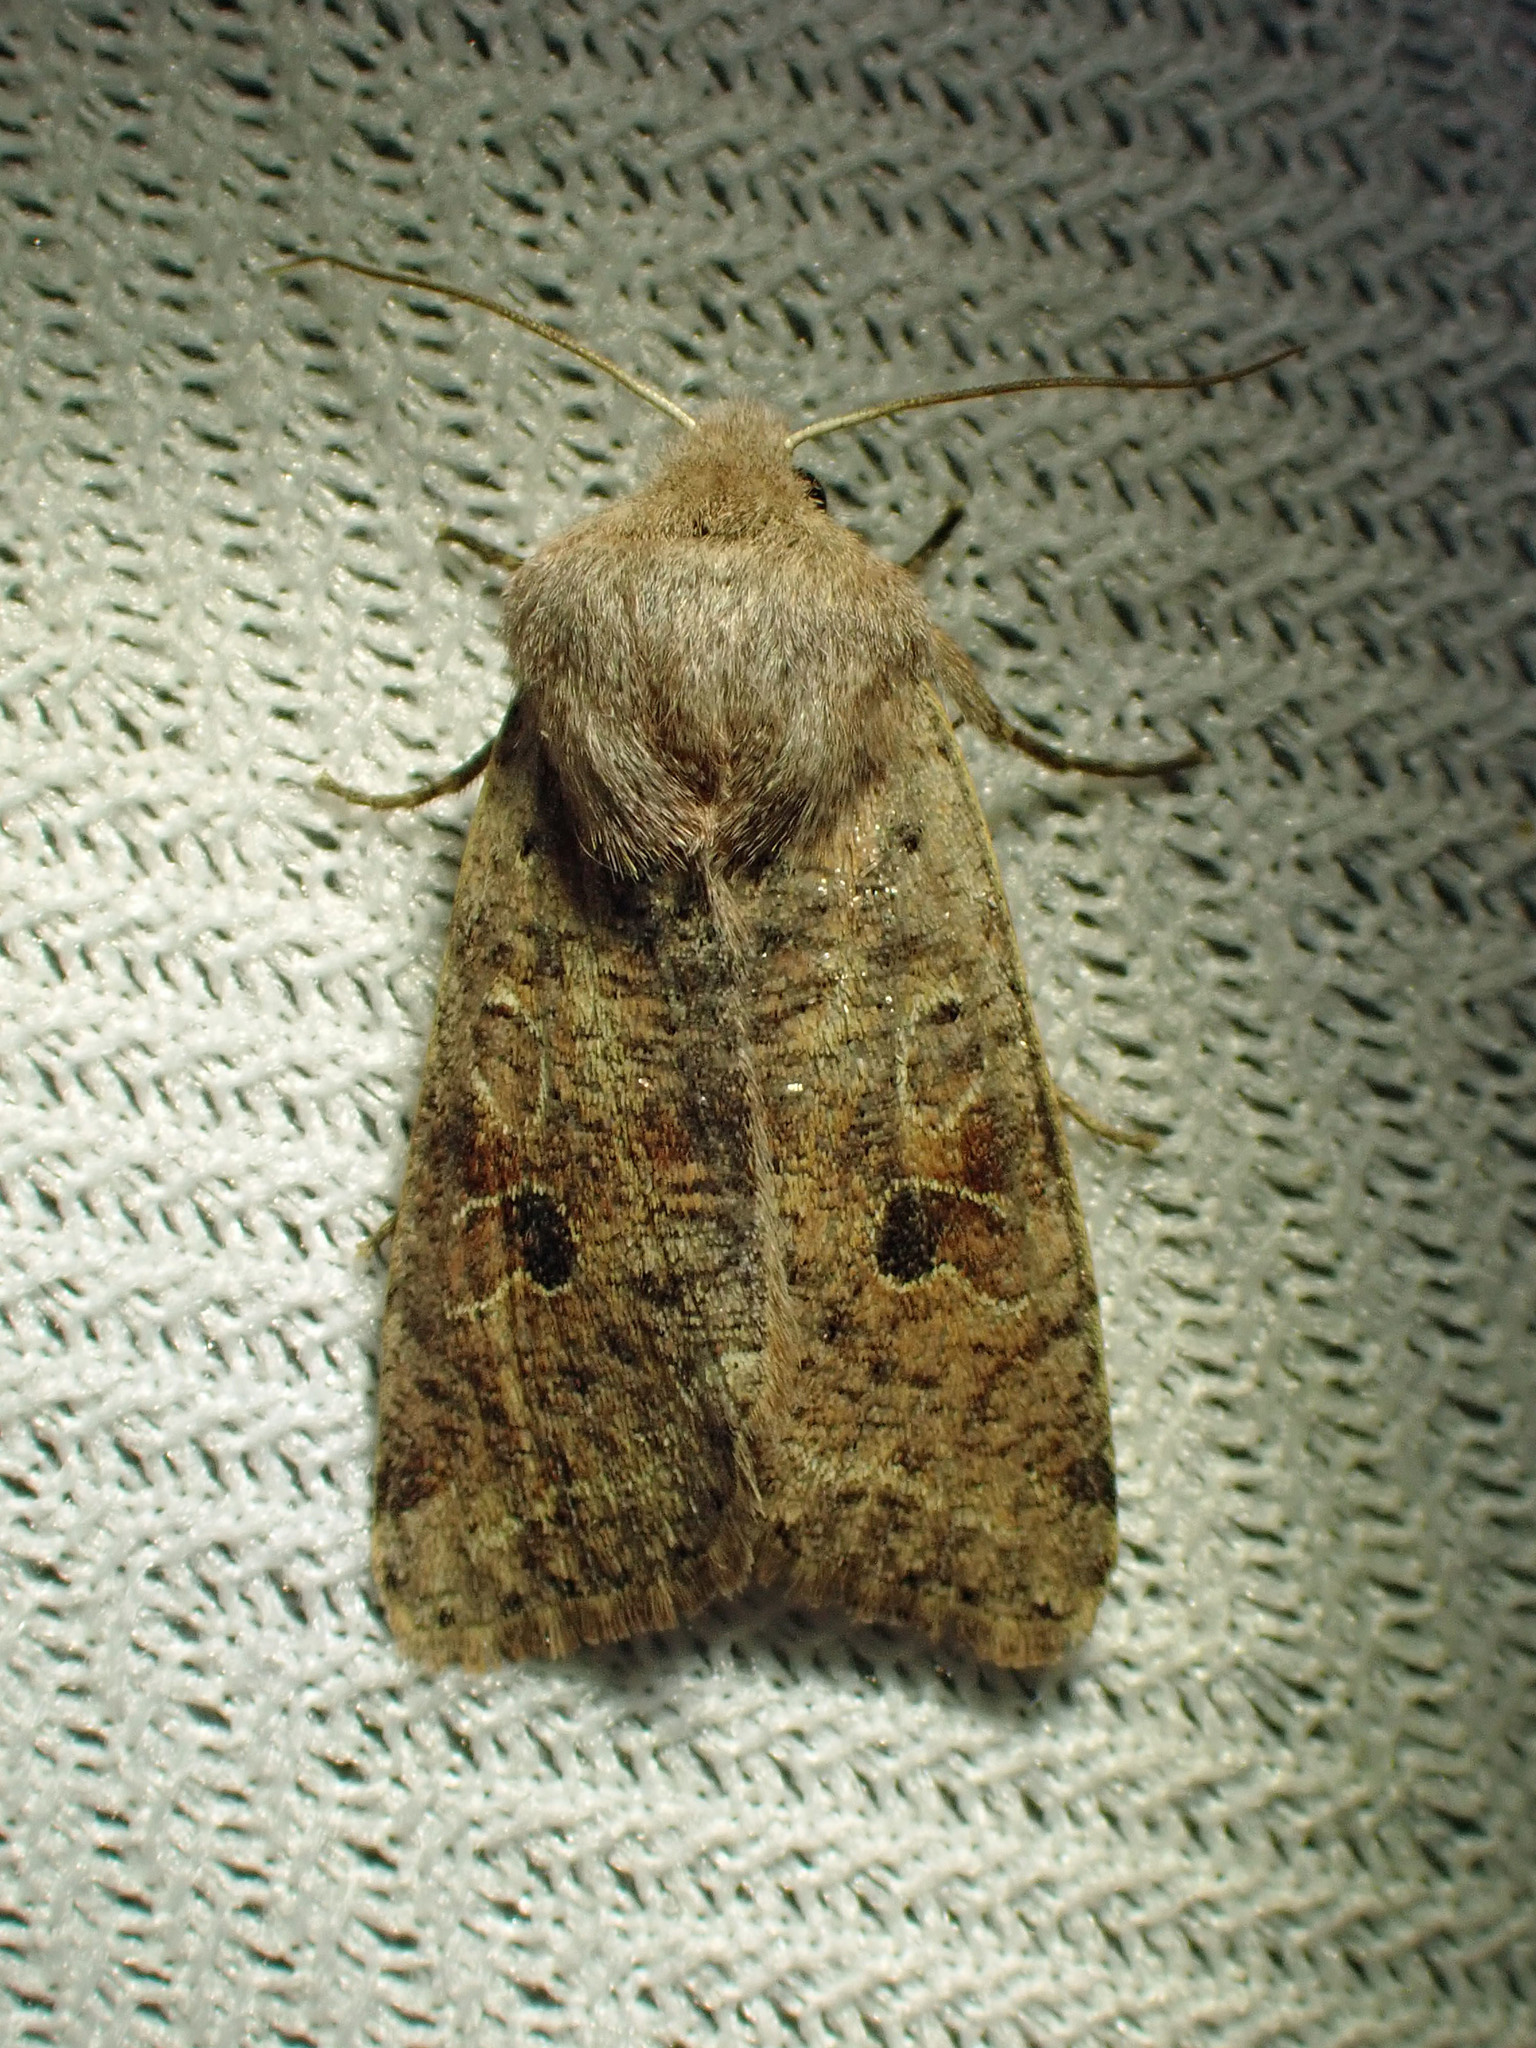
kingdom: Animalia
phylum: Arthropoda
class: Insecta
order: Lepidoptera
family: Noctuidae
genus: Orthosia
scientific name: Orthosia hibisci
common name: Green fruitworm
